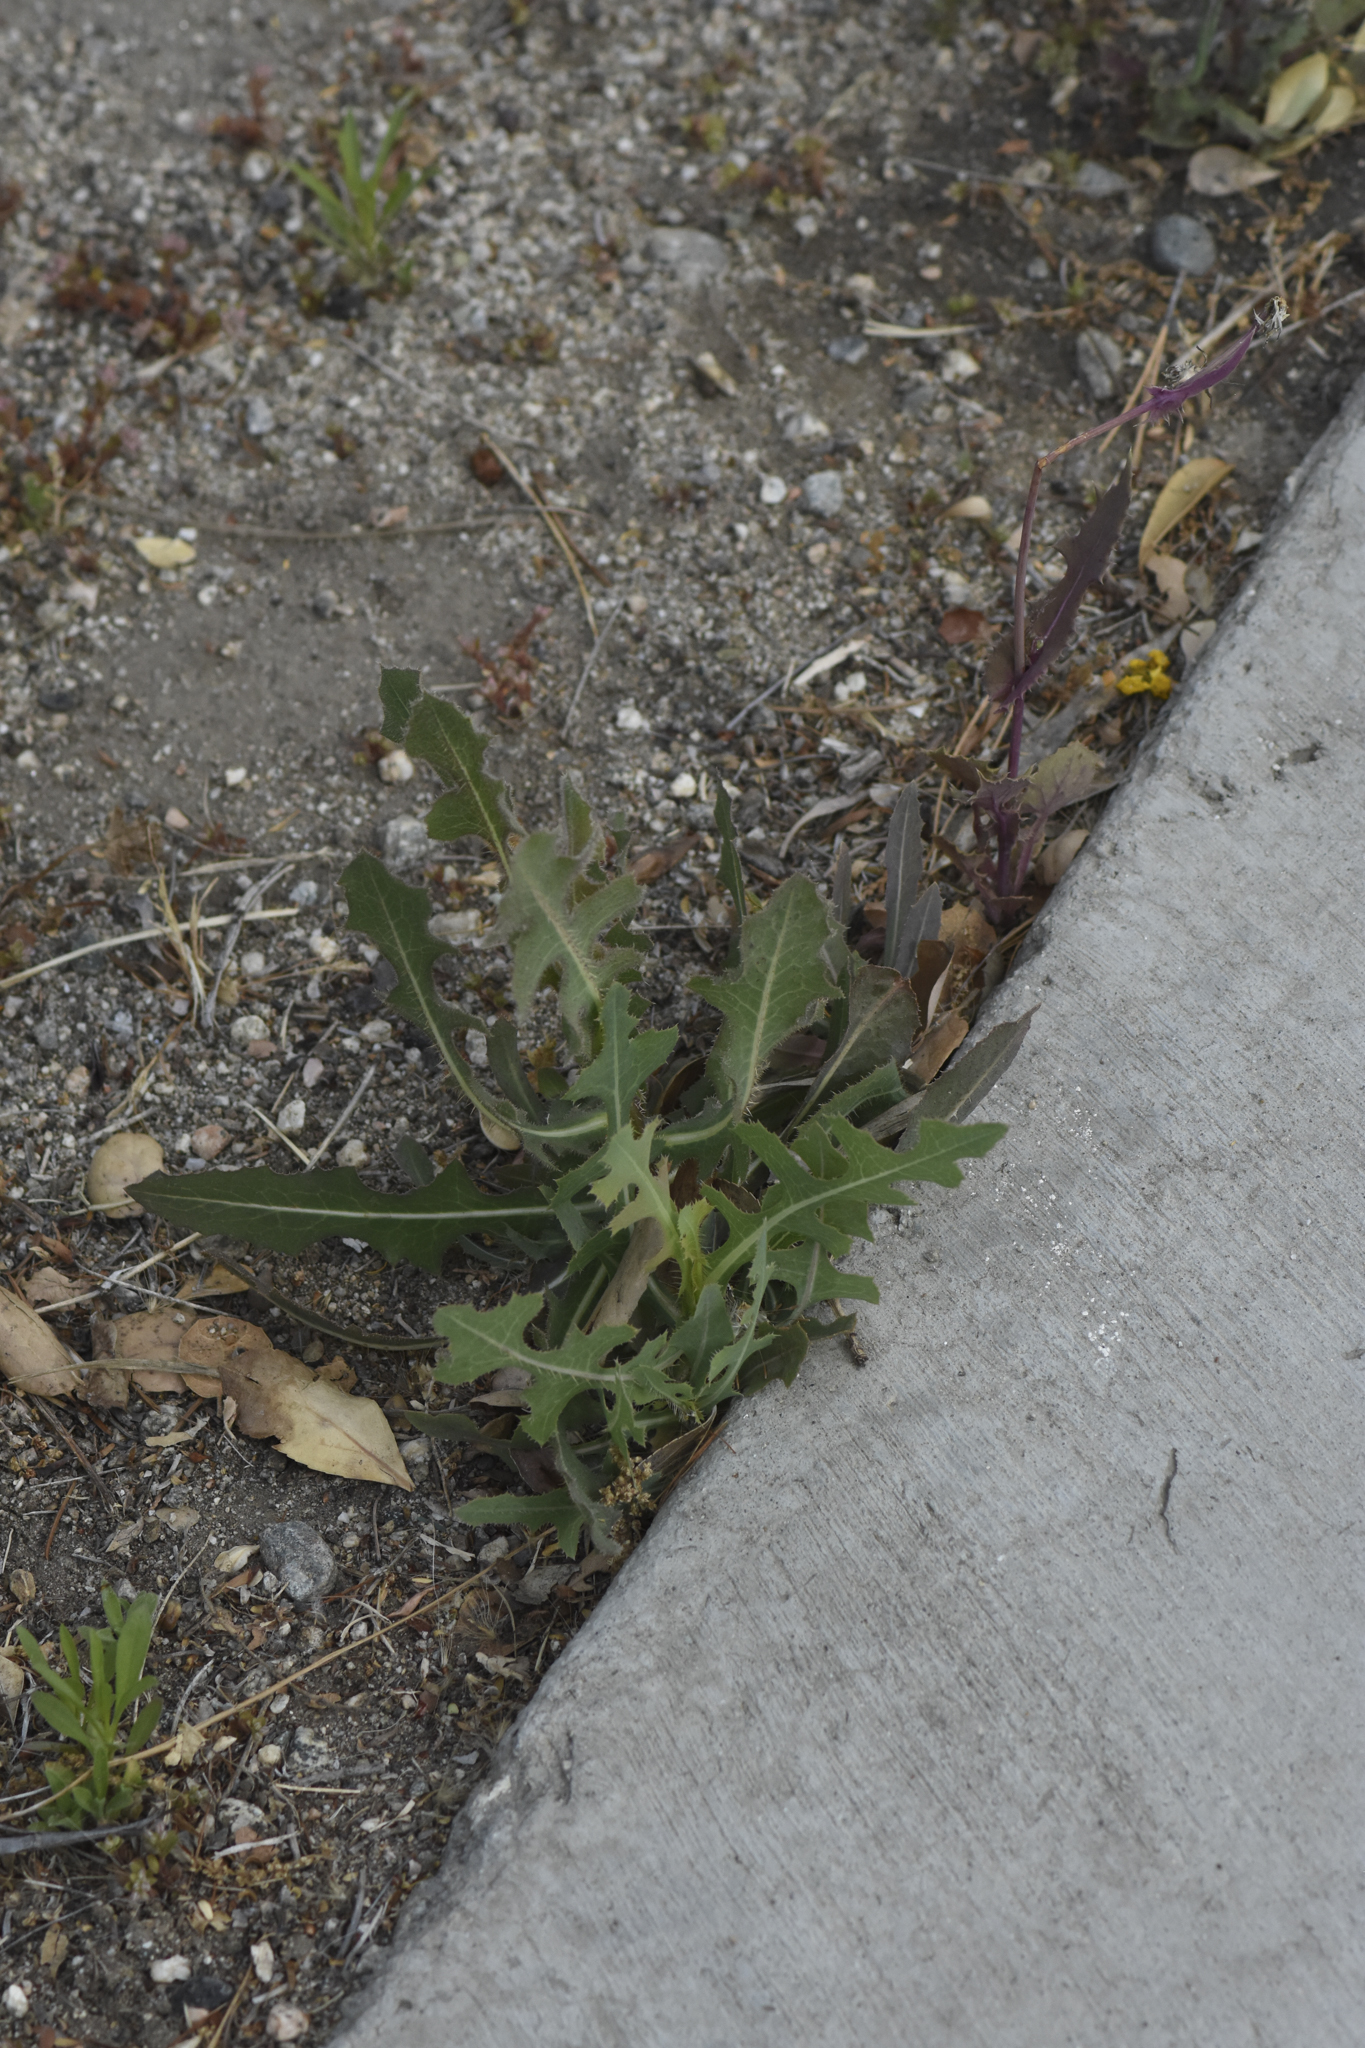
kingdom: Plantae
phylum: Tracheophyta
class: Magnoliopsida
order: Asterales
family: Asteraceae
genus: Lactuca
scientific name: Lactuca serriola
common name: Prickly lettuce
